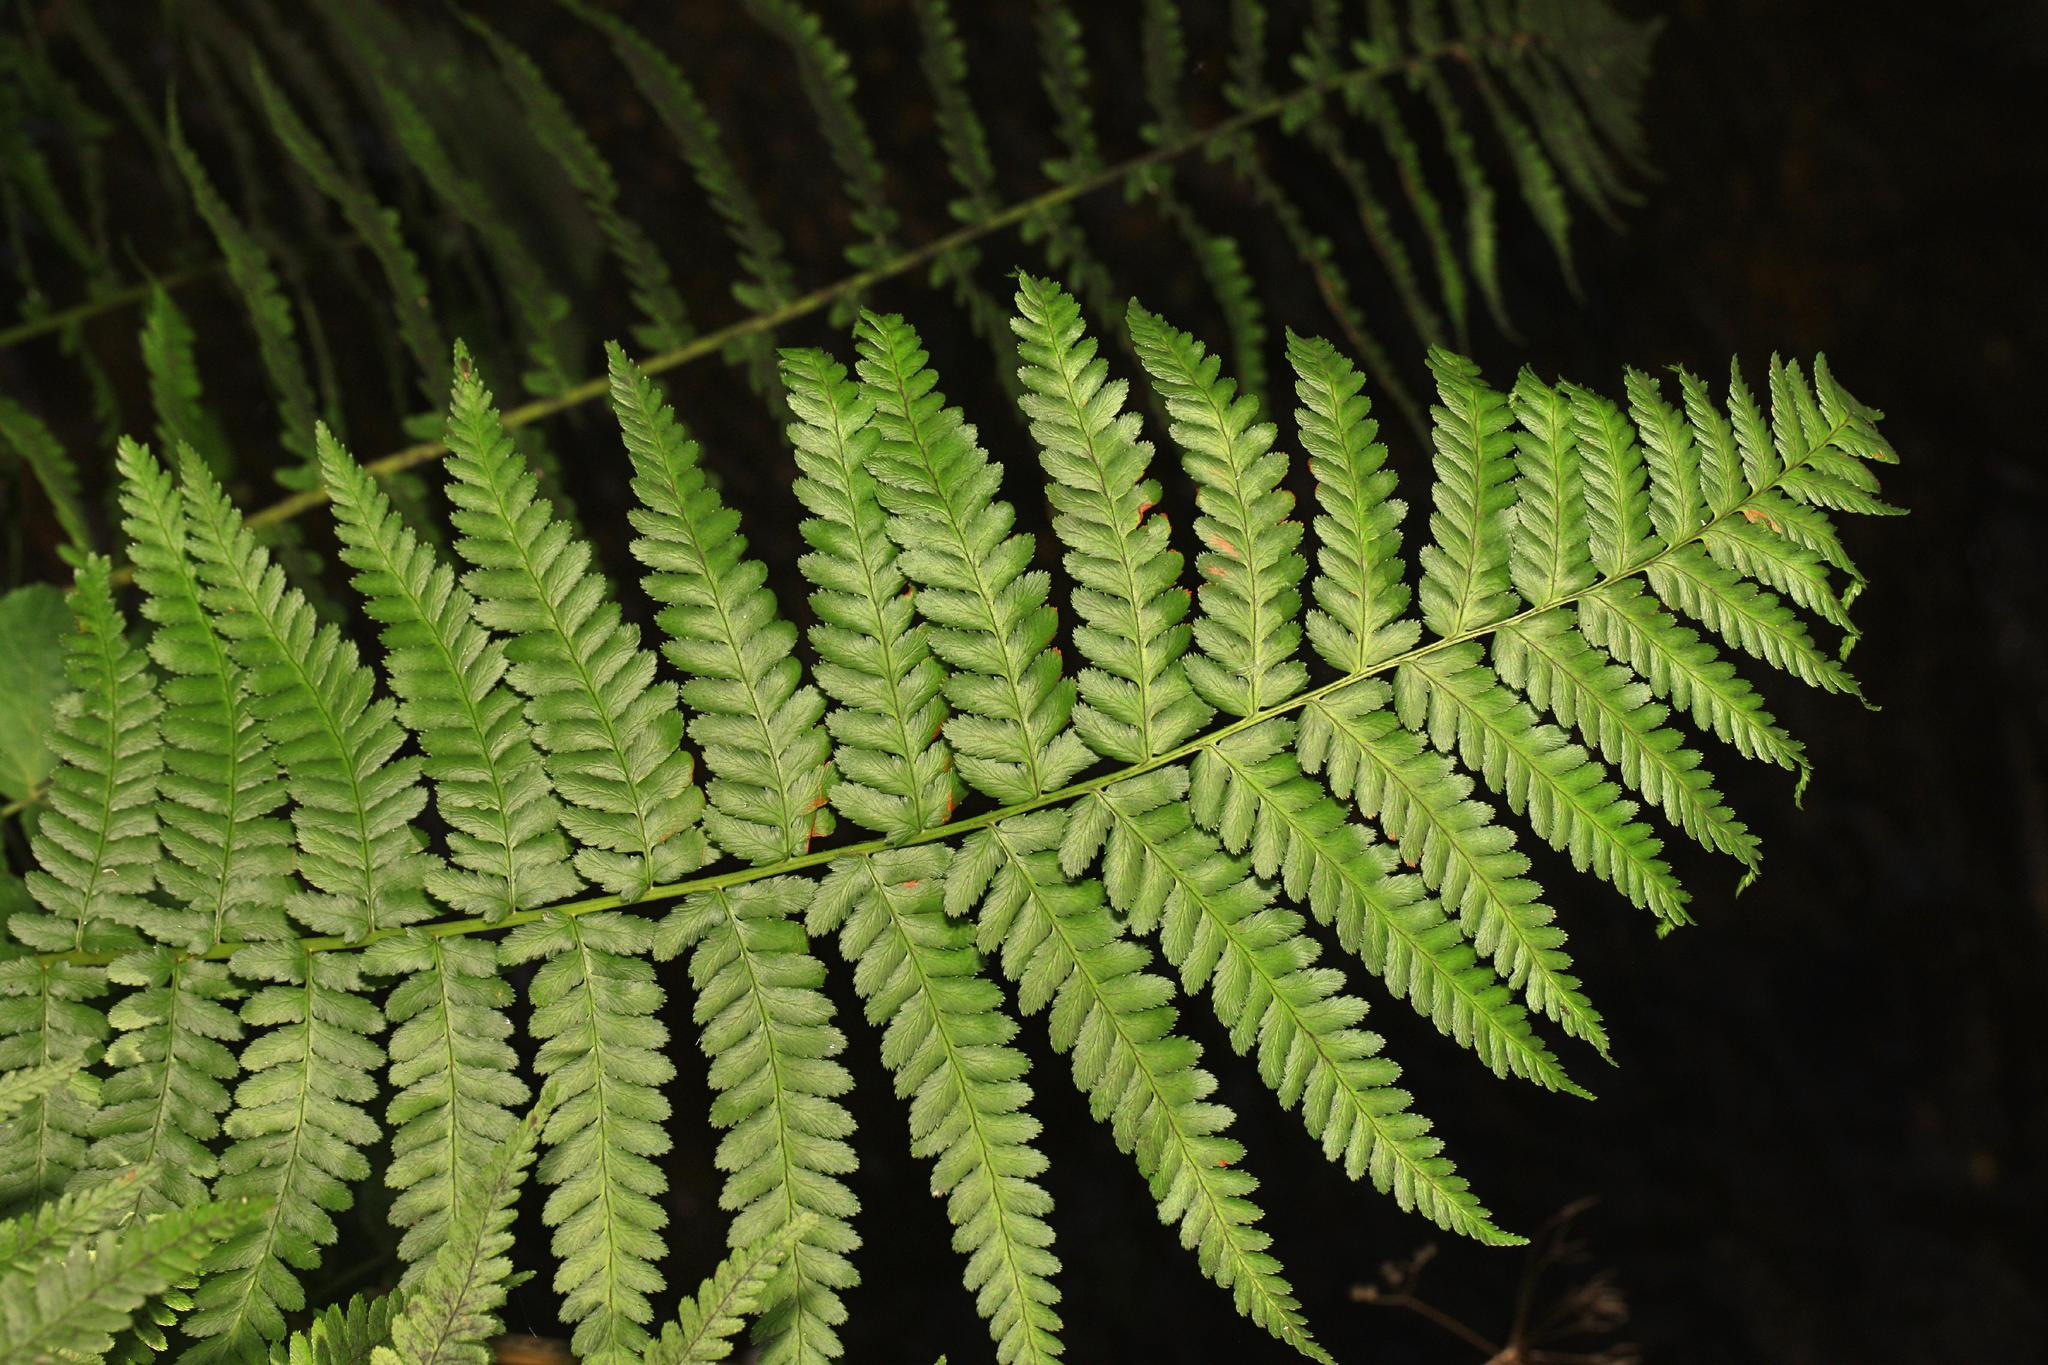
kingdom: Plantae
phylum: Tracheophyta
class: Polypodiopsida
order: Polypodiales
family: Dryopteridaceae
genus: Dryopteris
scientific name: Dryopteris filix-mas
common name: Male fern
